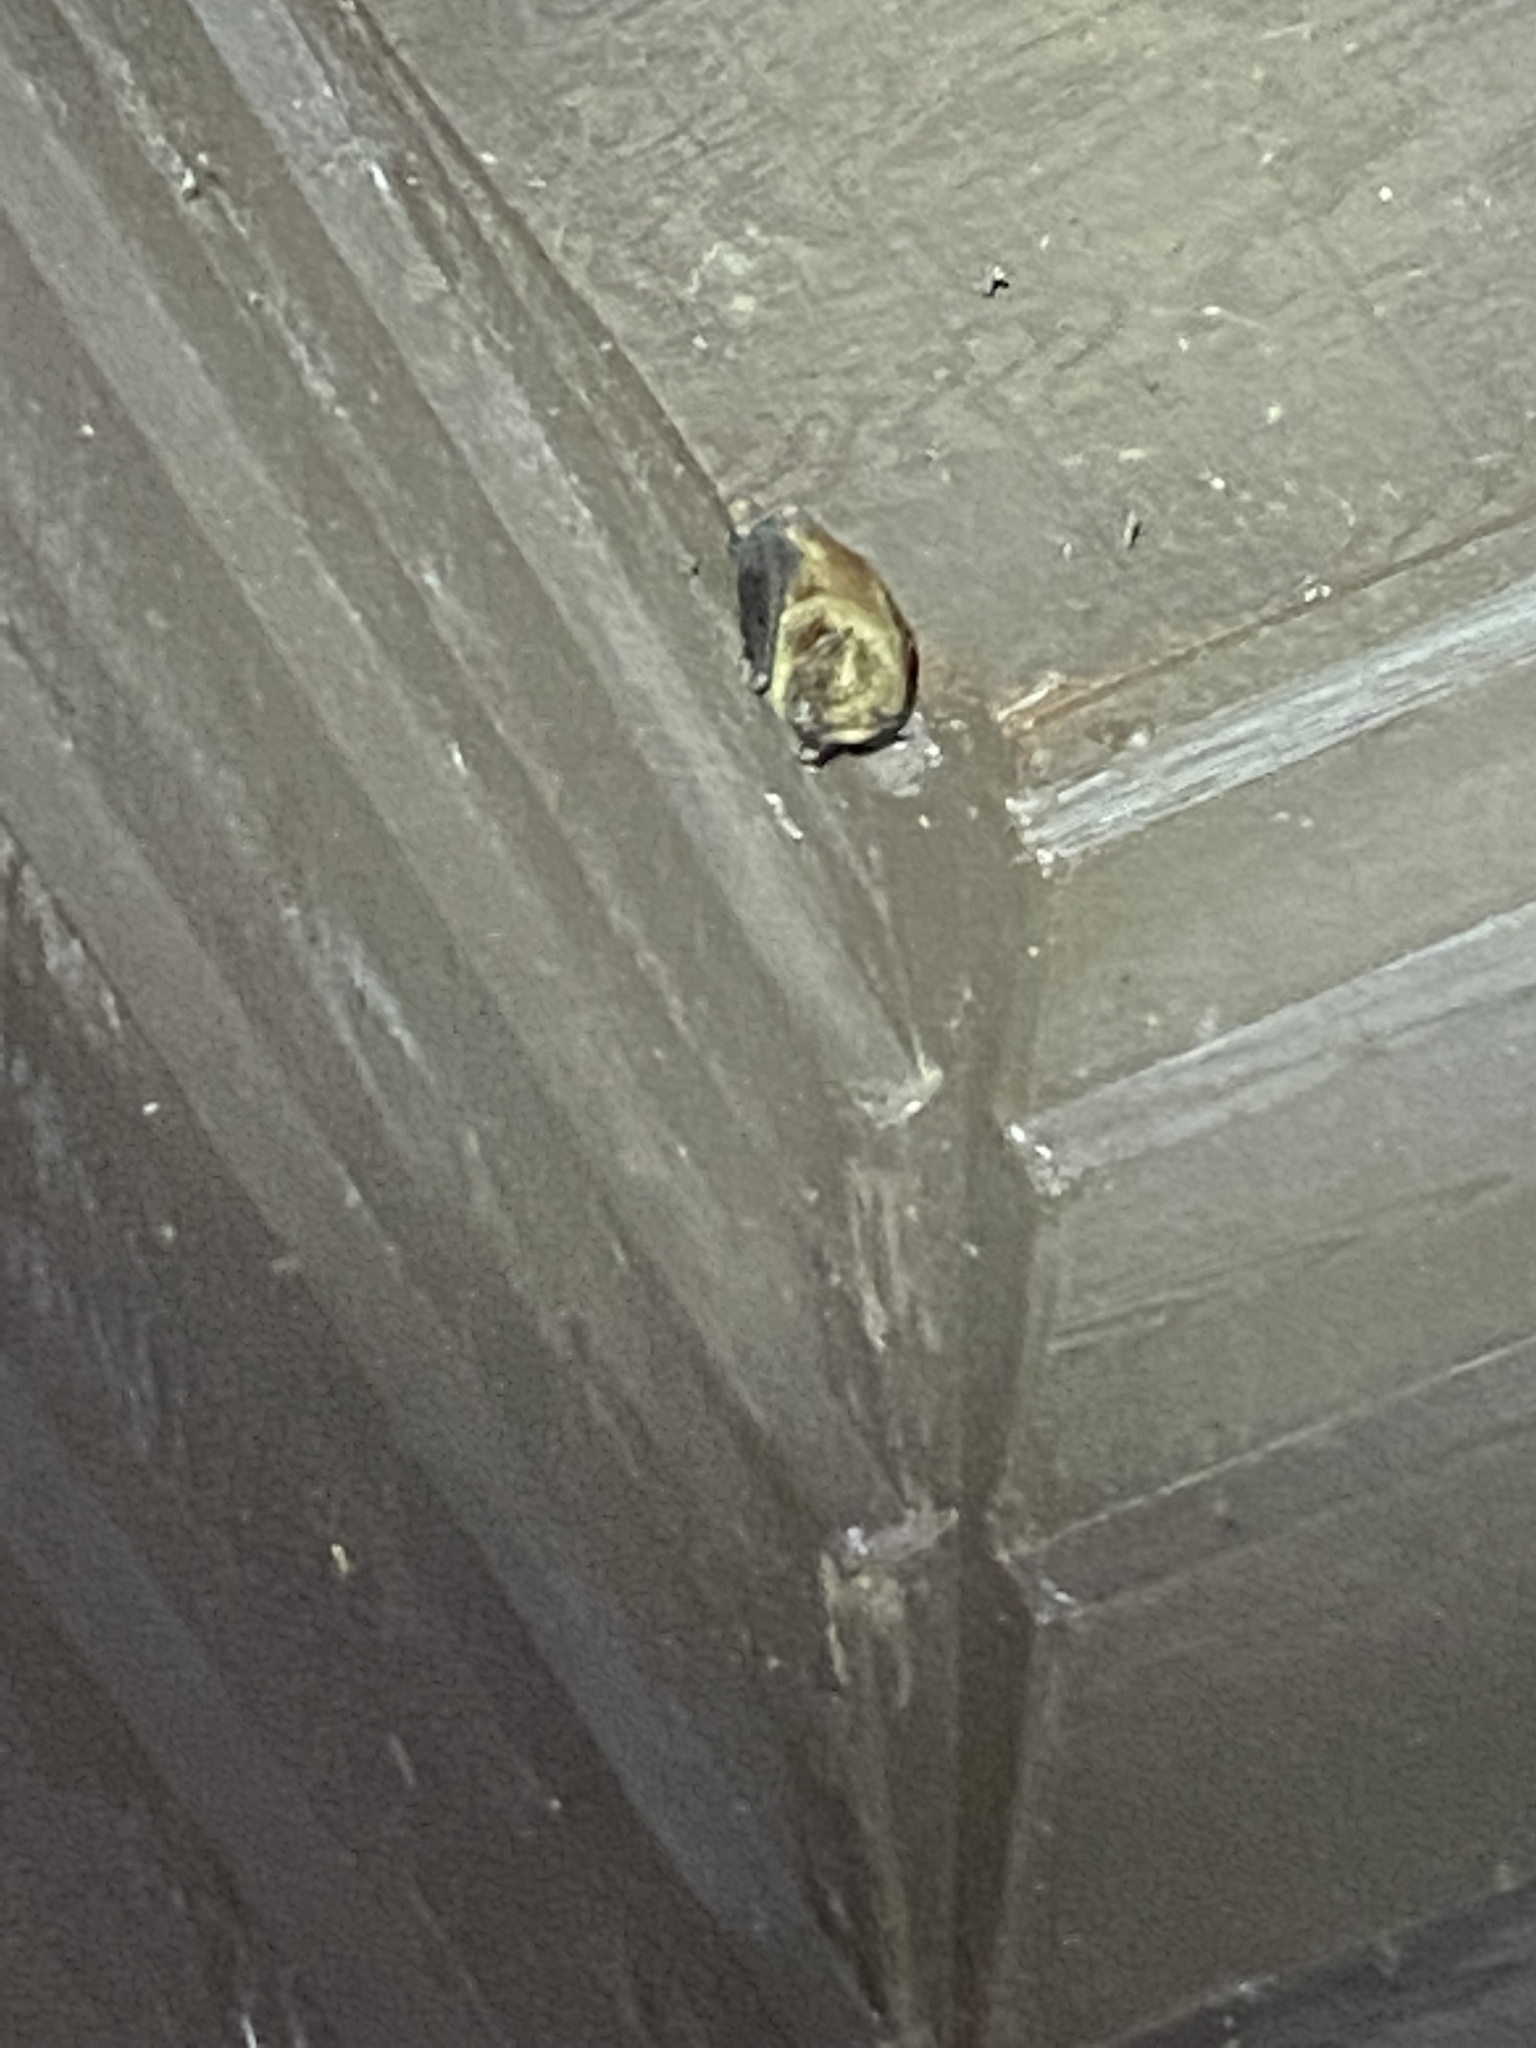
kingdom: Animalia
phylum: Chordata
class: Mammalia
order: Chiroptera
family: Vespertilionidae
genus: Eptesicus
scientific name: Eptesicus fuscus
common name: Big brown bat
